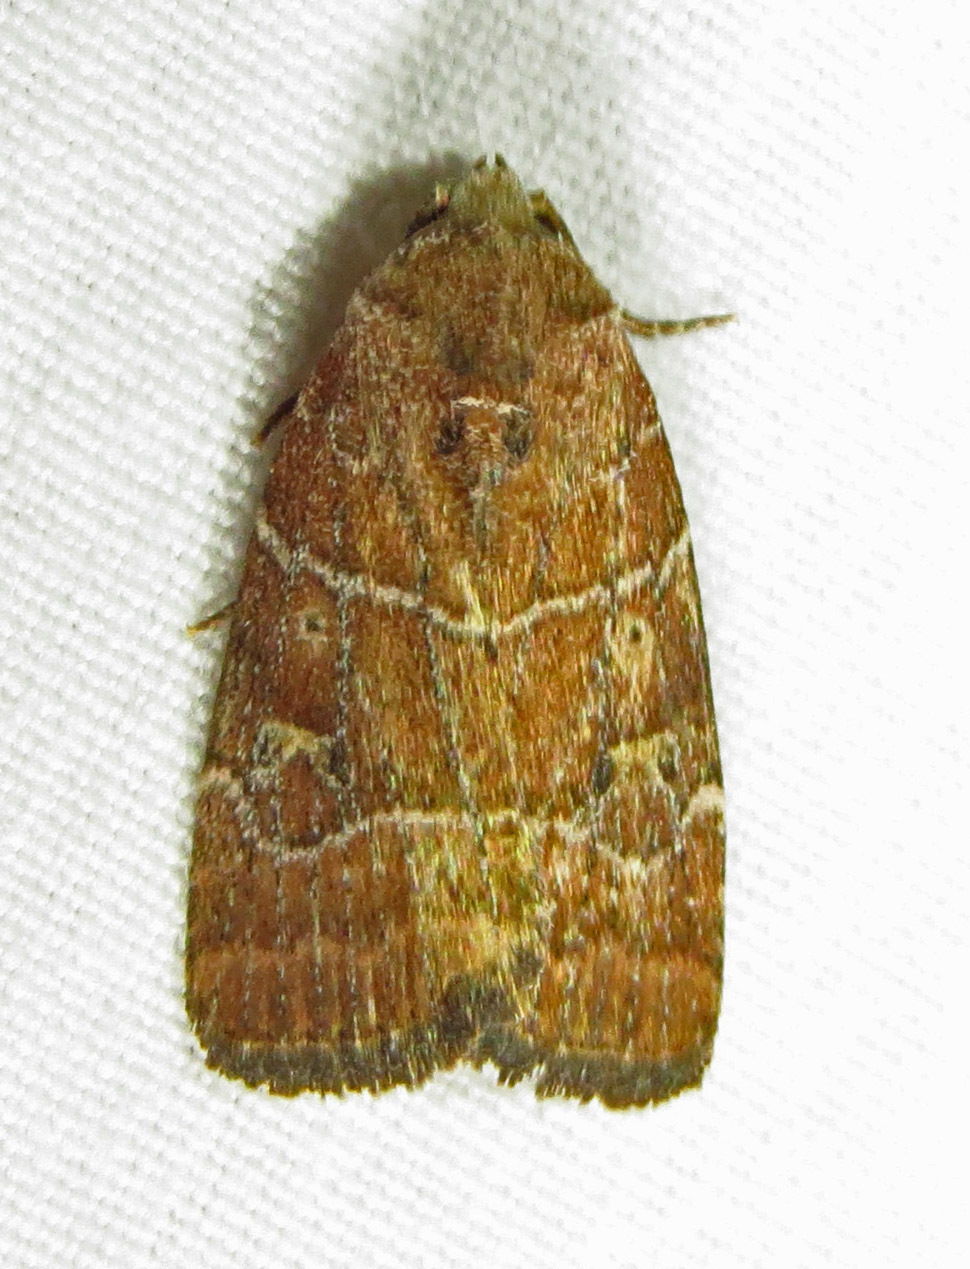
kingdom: Animalia
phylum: Arthropoda
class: Insecta
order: Lepidoptera
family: Noctuidae
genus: Elaphria
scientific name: Elaphria grata
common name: Grateful midget moth
